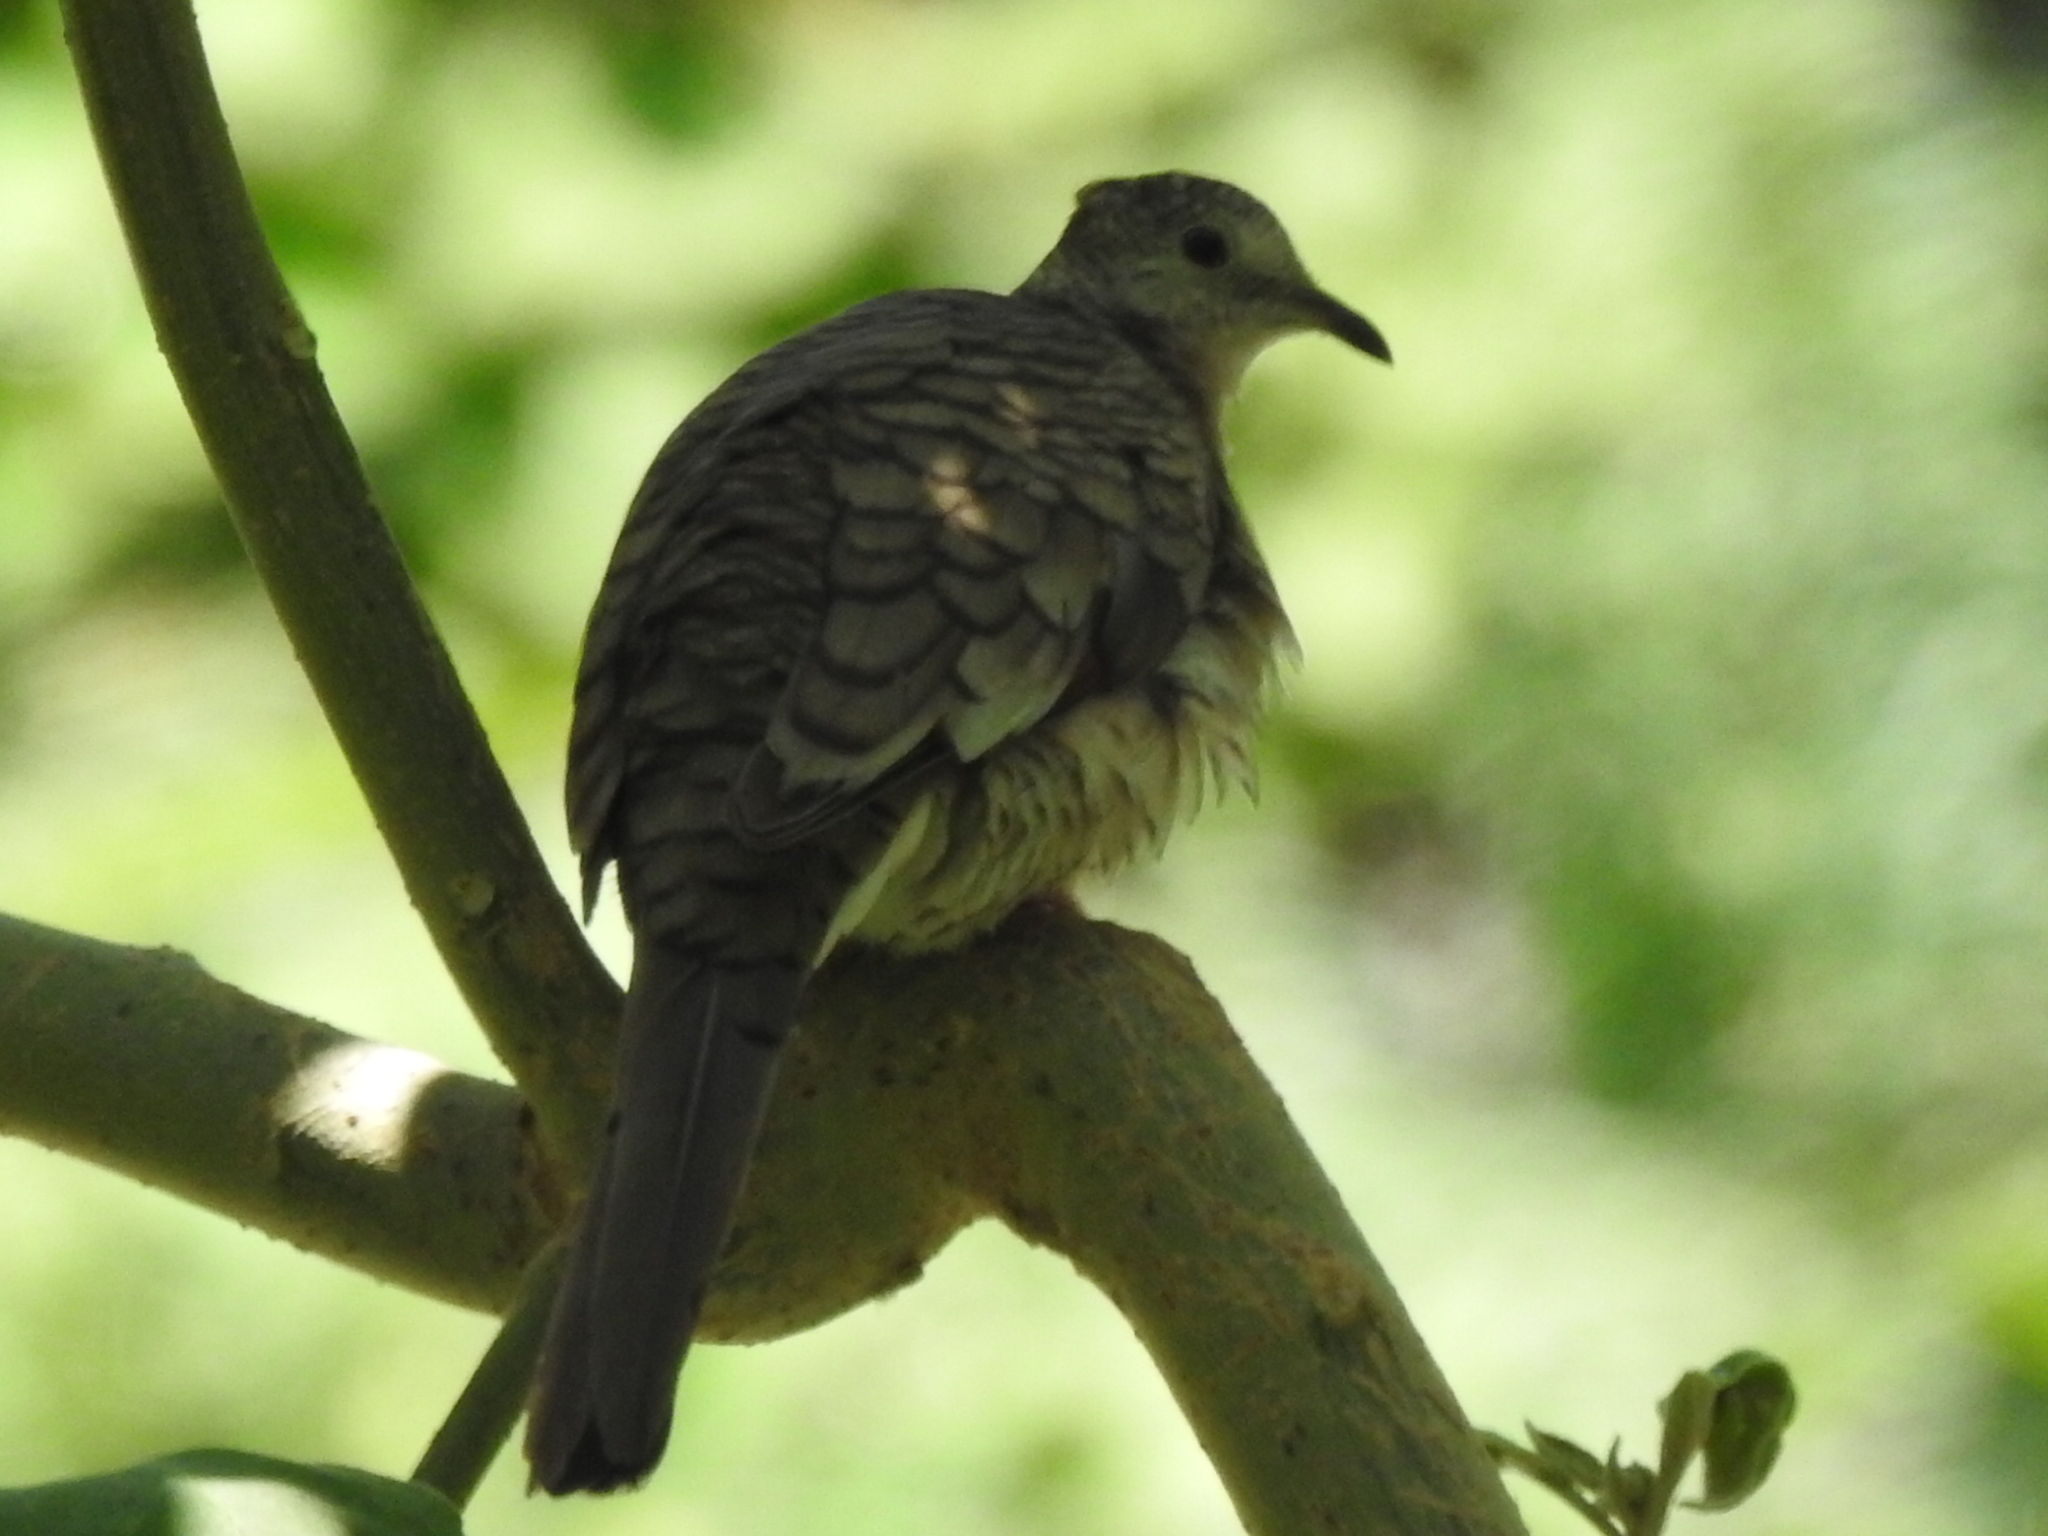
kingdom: Animalia
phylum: Chordata
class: Aves
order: Columbiformes
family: Columbidae
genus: Columbina
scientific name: Columbina inca
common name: Inca dove
